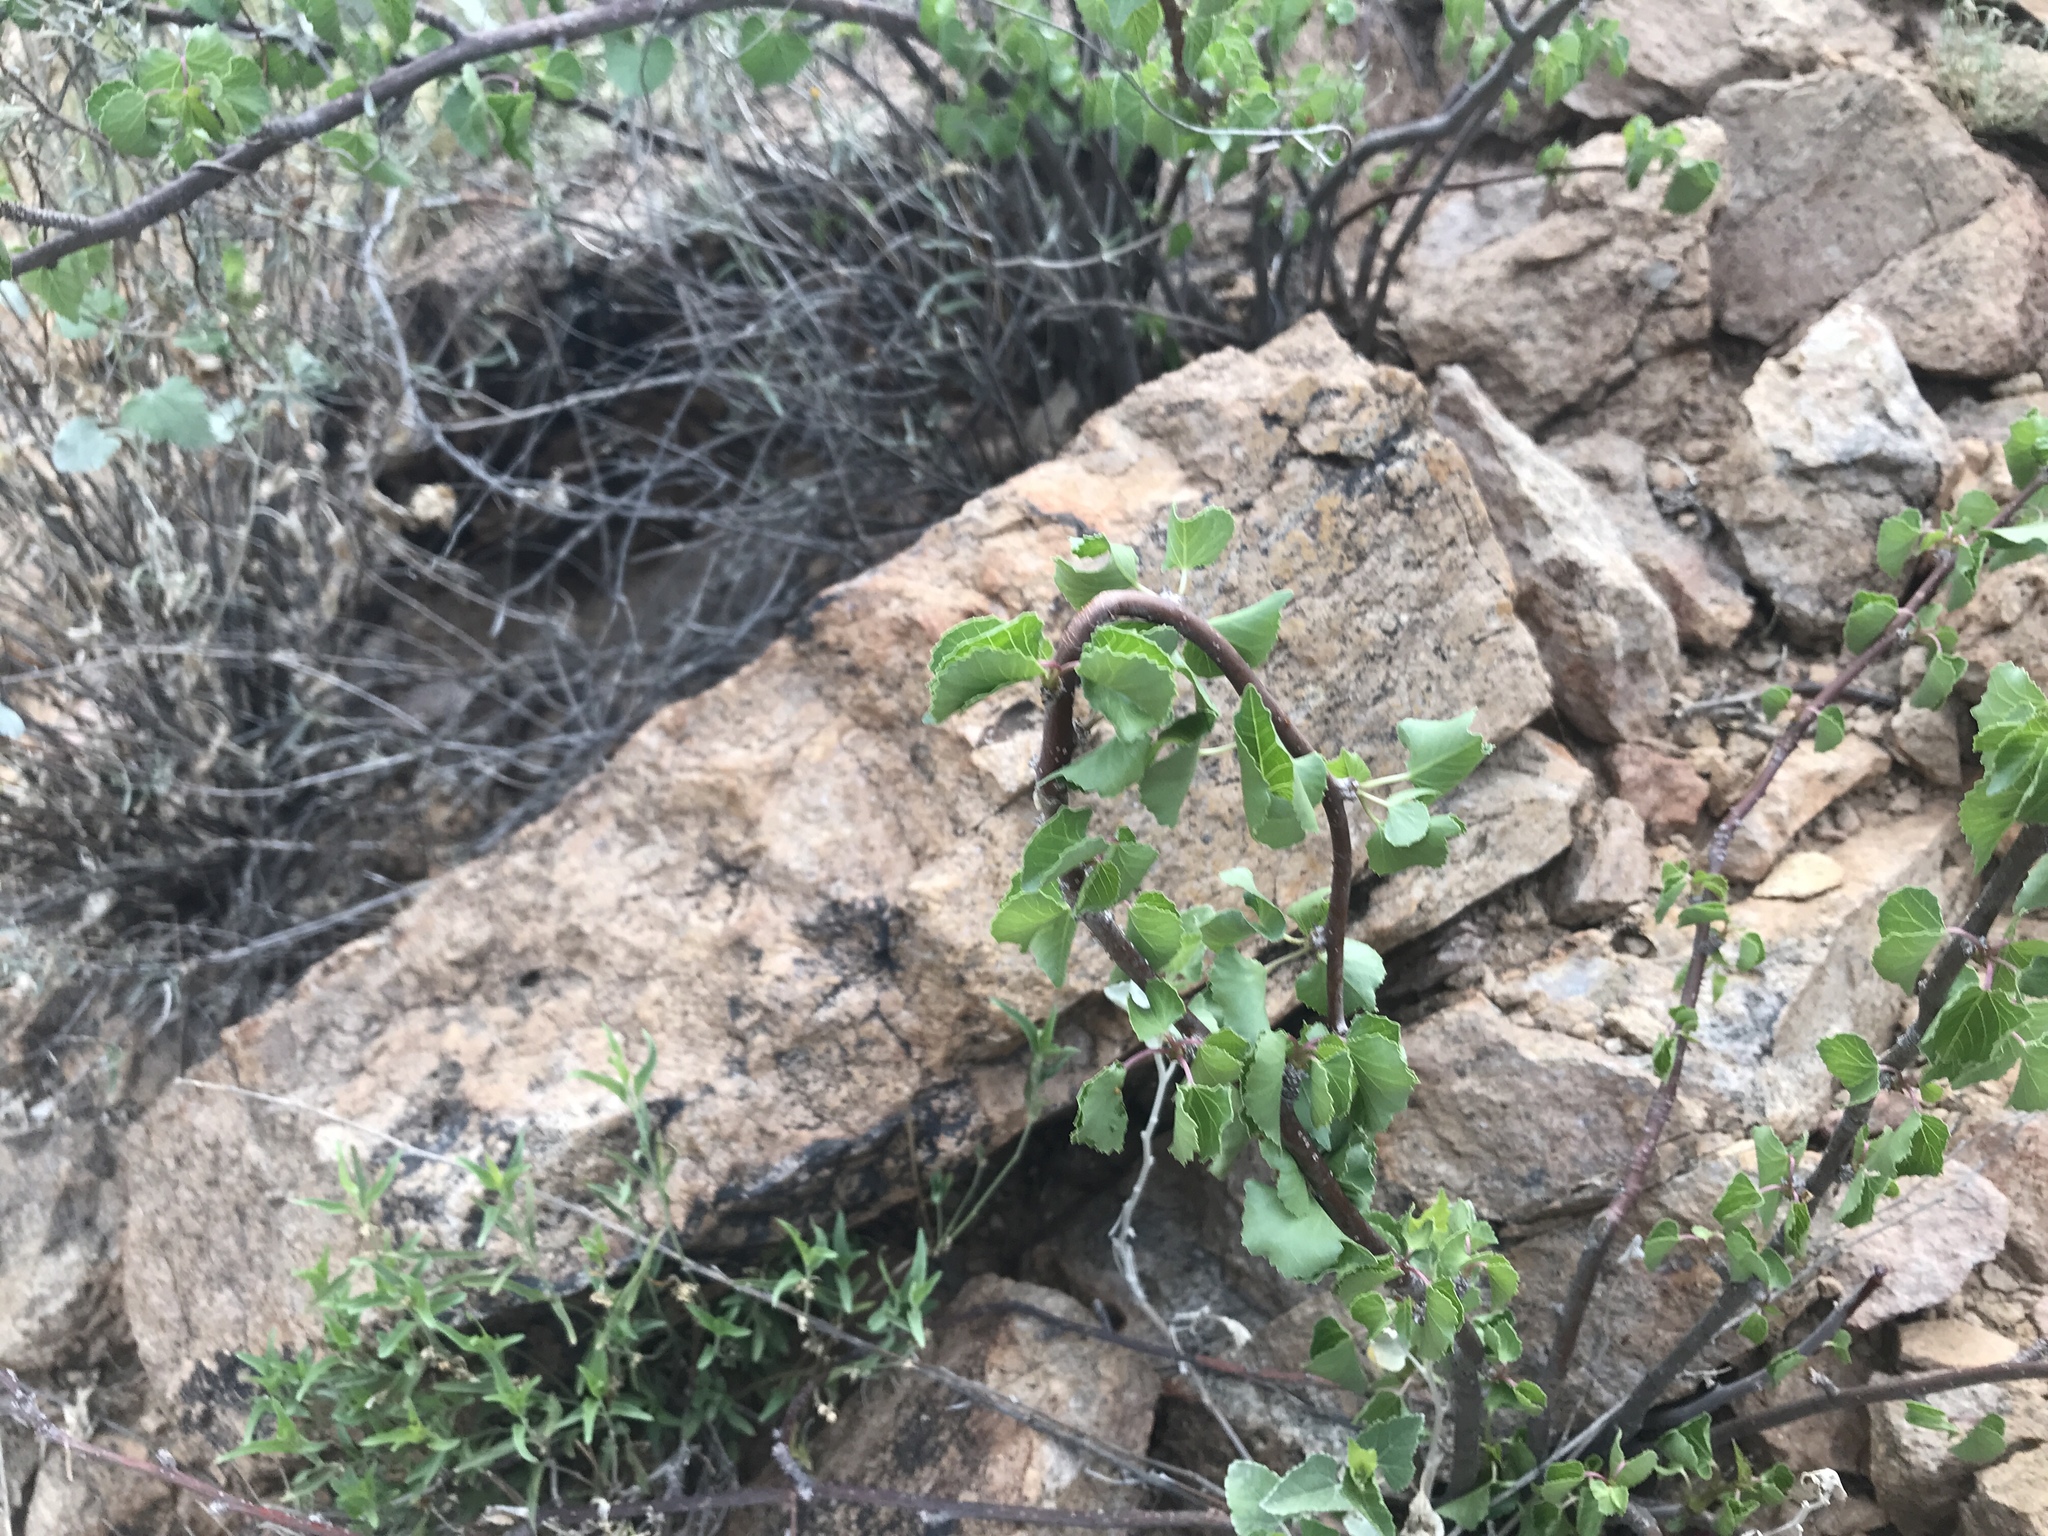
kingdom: Plantae
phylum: Tracheophyta
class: Magnoliopsida
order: Malpighiales
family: Euphorbiaceae
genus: Jatropha
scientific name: Jatropha cardiophylla
